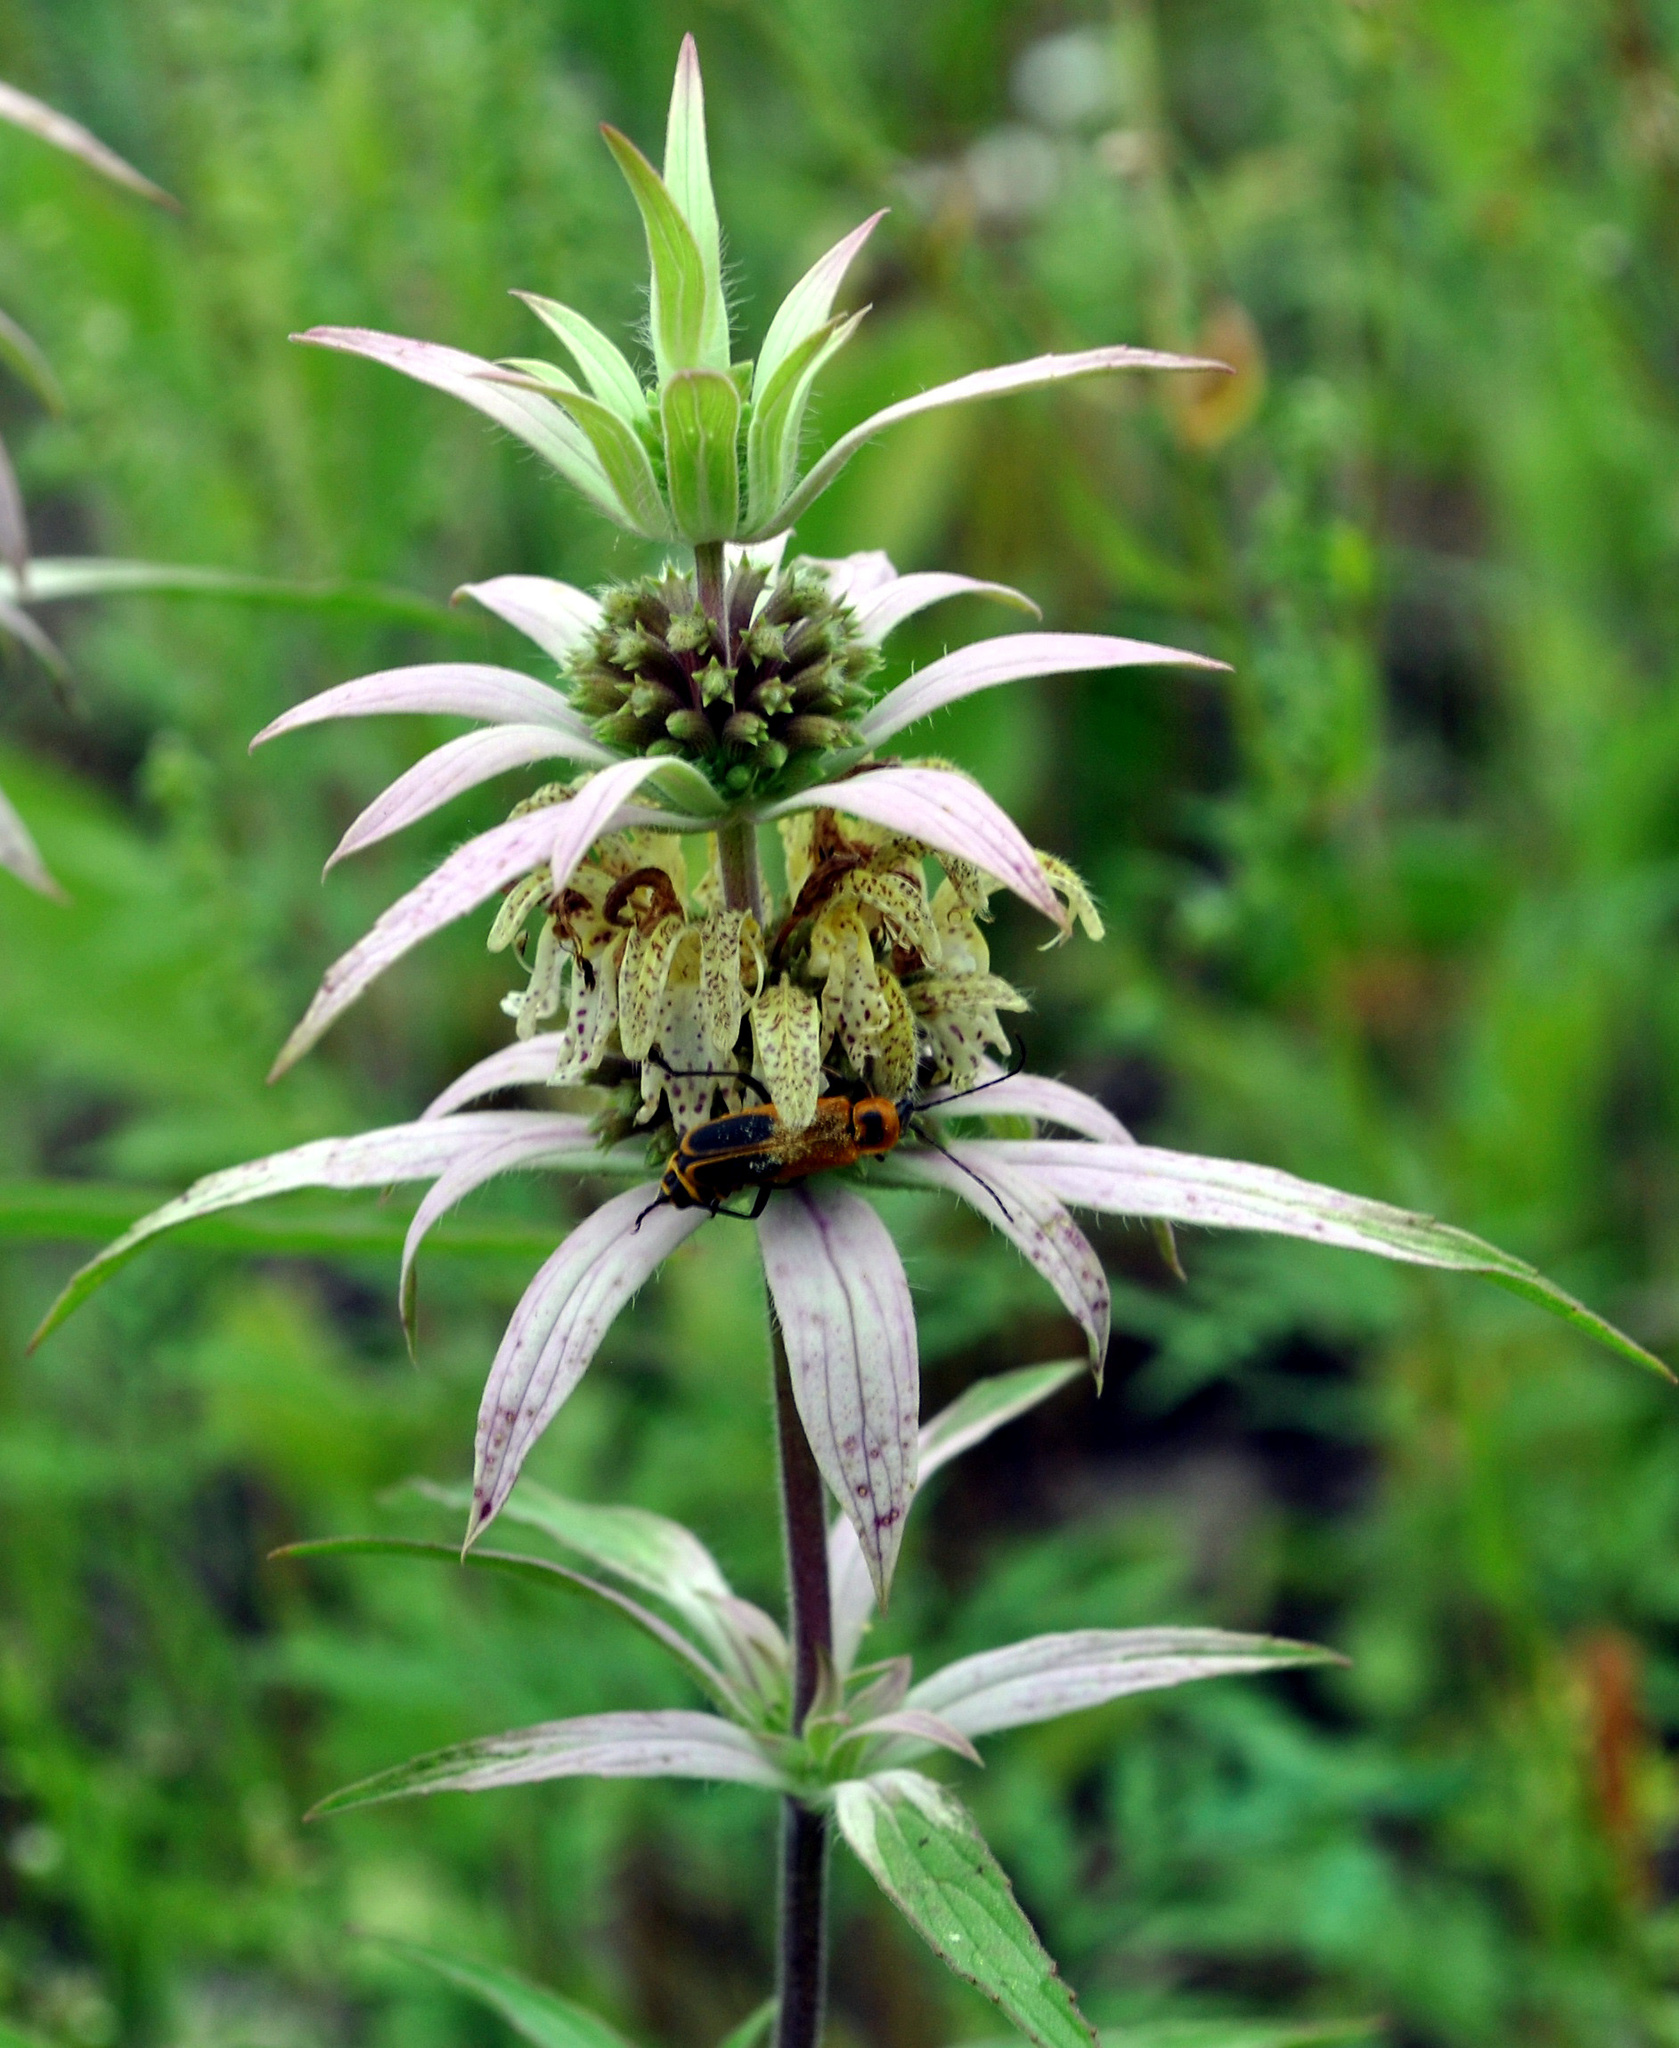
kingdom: Plantae
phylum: Tracheophyta
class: Magnoliopsida
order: Lamiales
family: Lamiaceae
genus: Monarda
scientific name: Monarda punctata
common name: Dotted monarda
